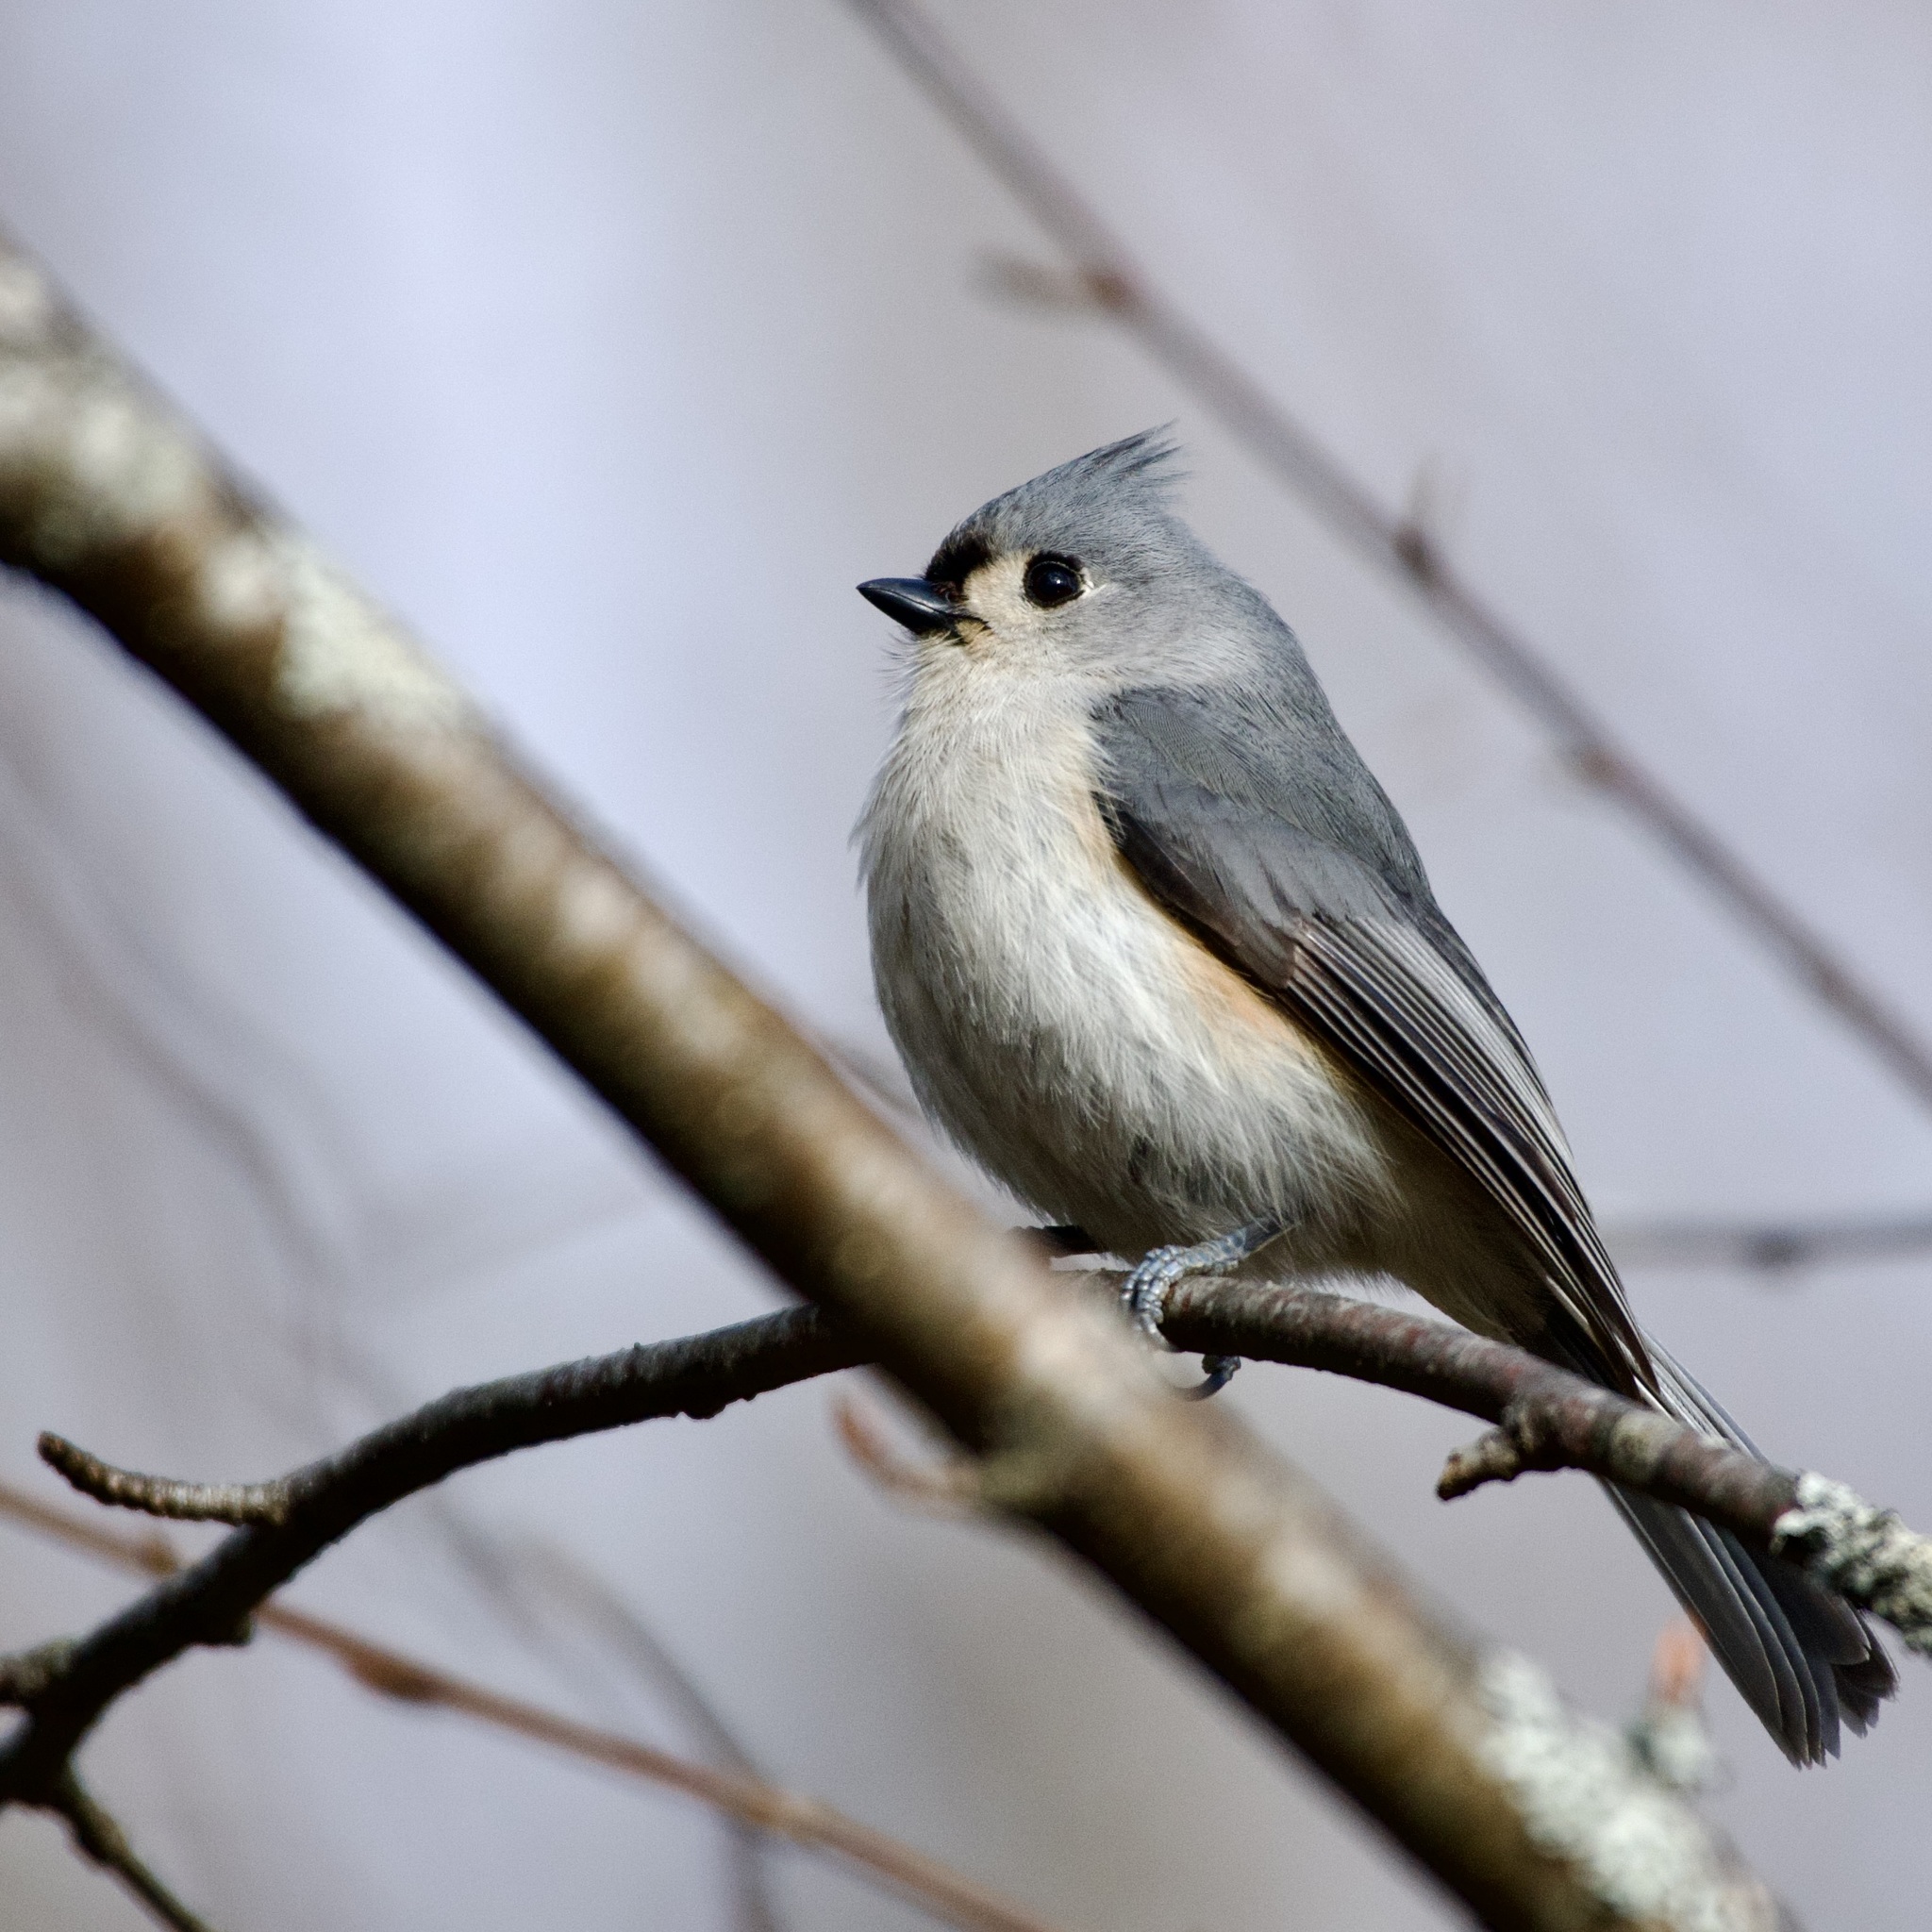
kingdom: Animalia
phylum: Chordata
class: Aves
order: Passeriformes
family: Paridae
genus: Baeolophus
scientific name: Baeolophus bicolor
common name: Tufted titmouse
